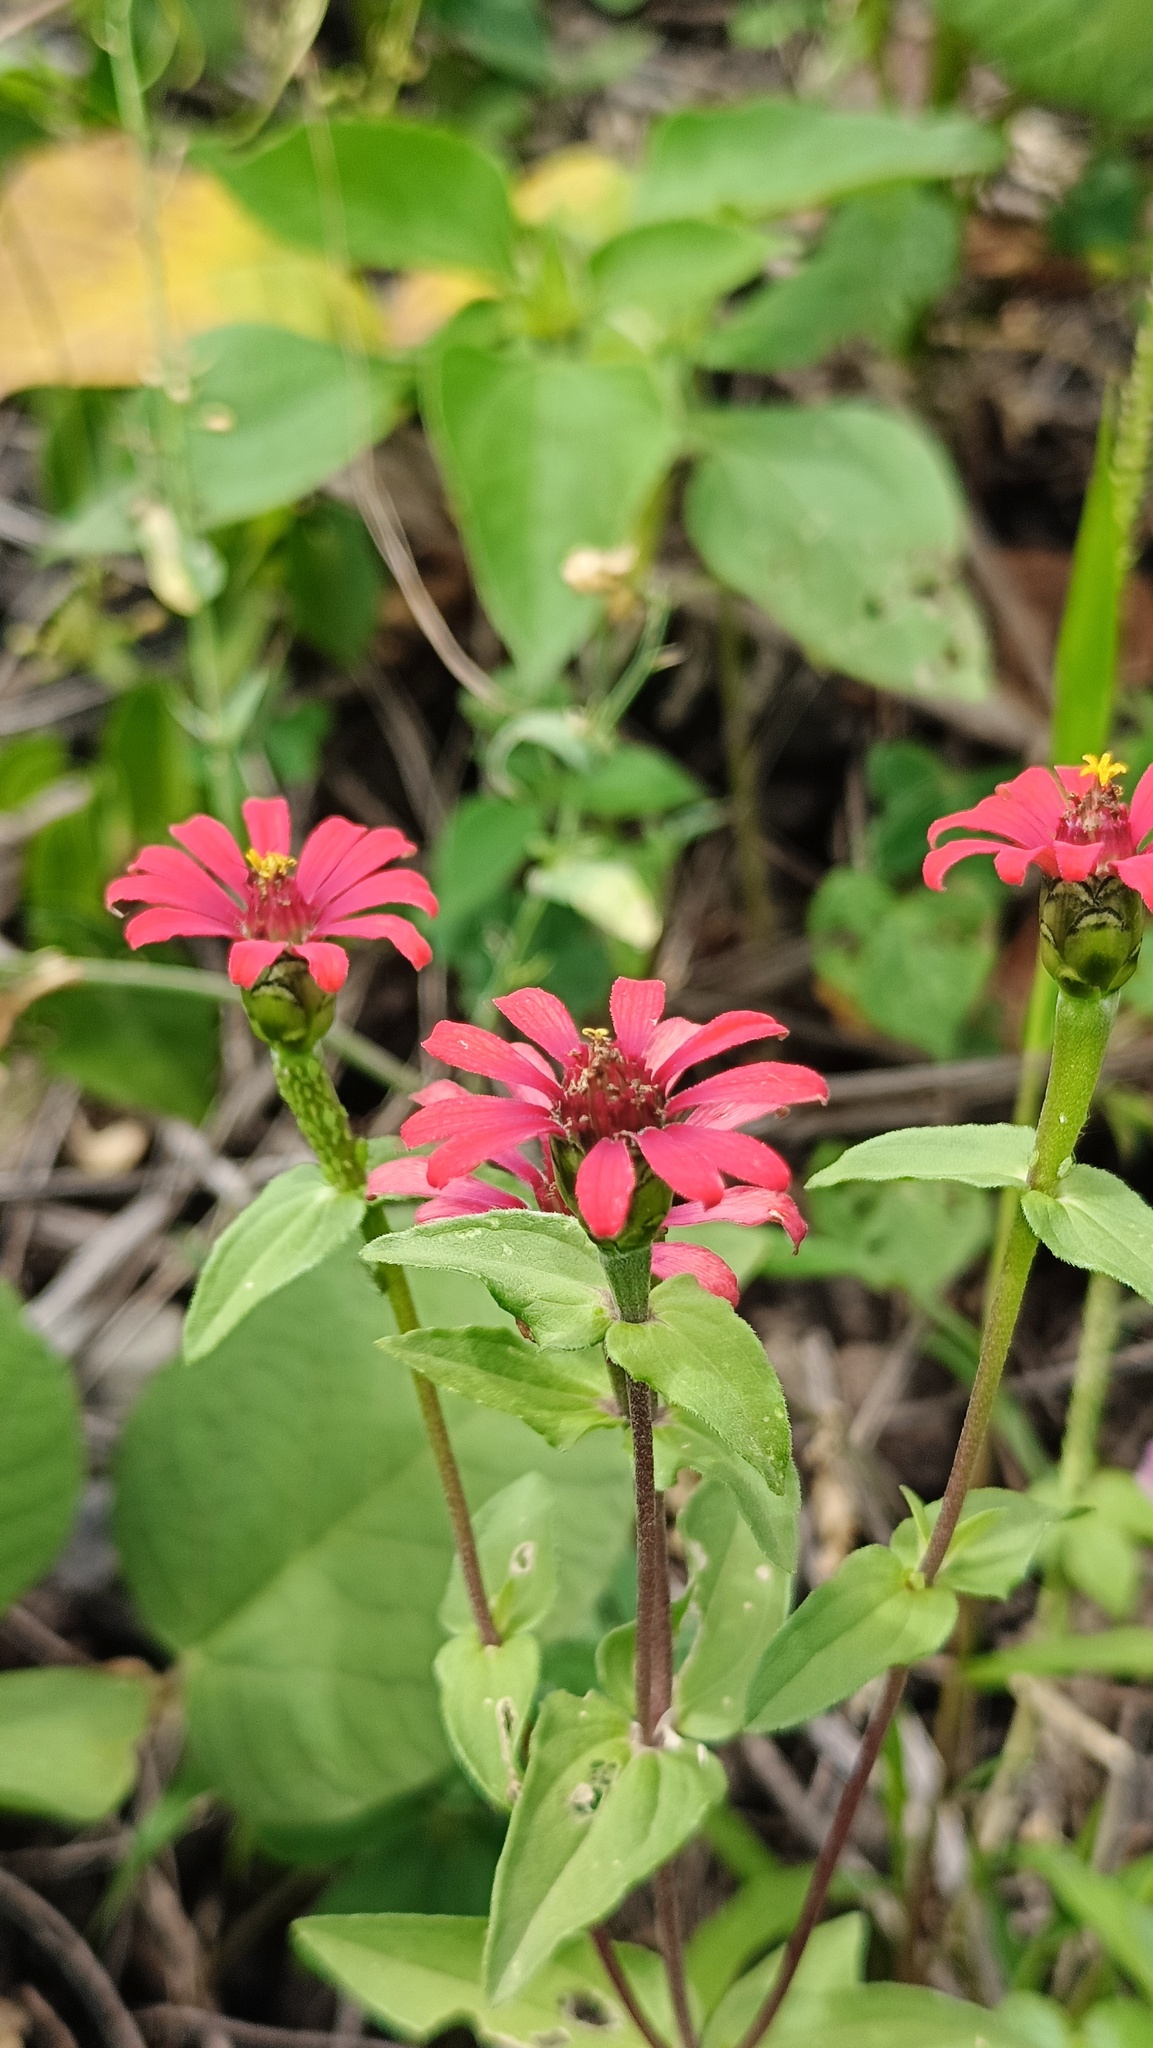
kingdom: Plantae
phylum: Tracheophyta
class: Magnoliopsida
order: Asterales
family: Asteraceae
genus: Zinnia
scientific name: Zinnia peruviana
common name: Peruvian zinnia
